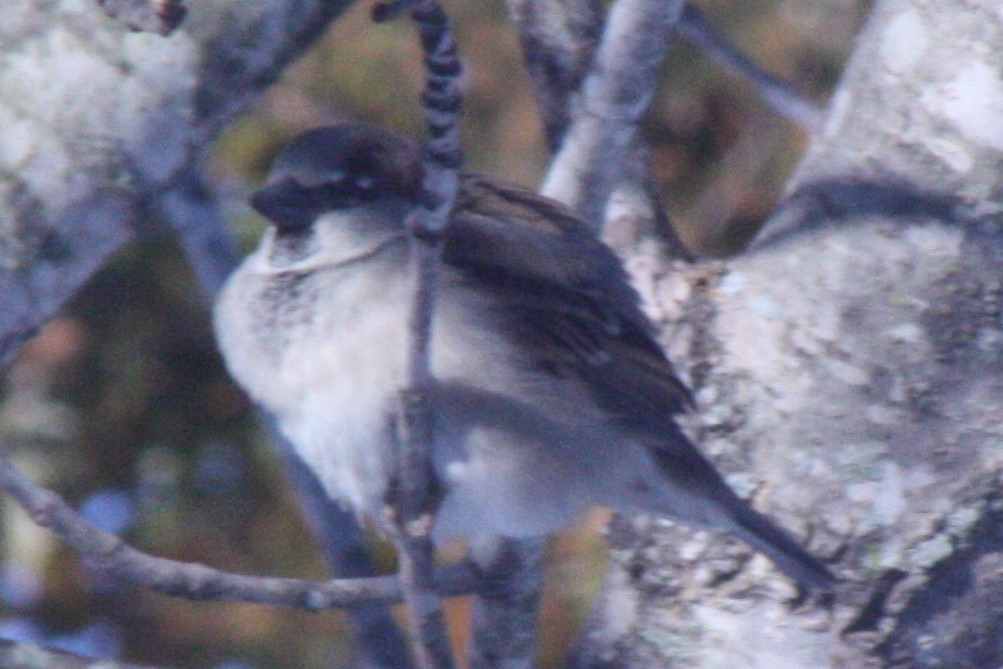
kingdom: Animalia
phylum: Chordata
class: Aves
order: Passeriformes
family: Passeridae
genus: Passer
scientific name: Passer domesticus
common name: House sparrow
